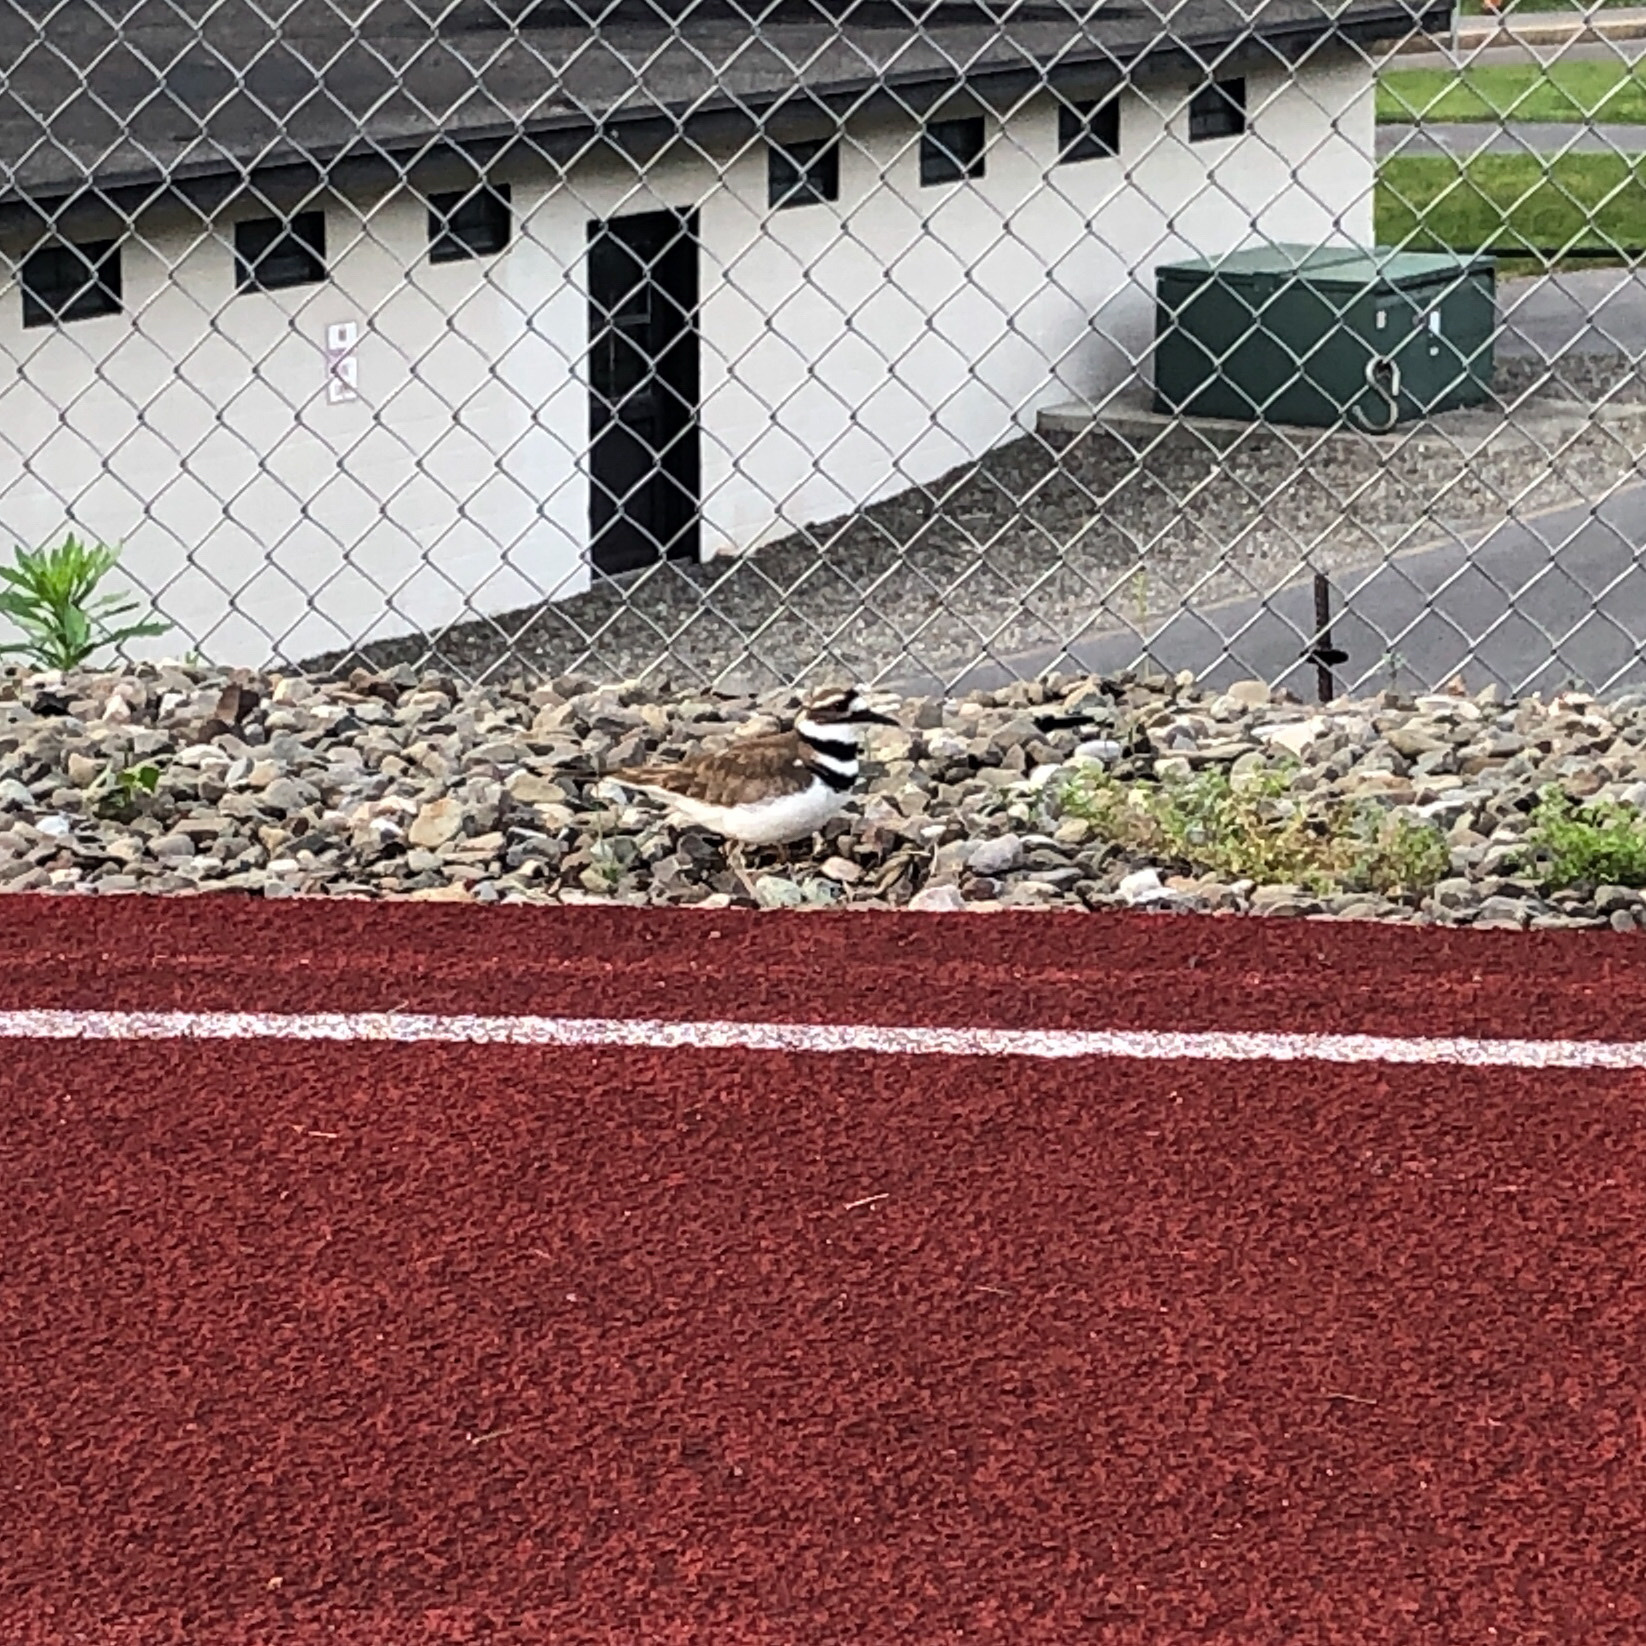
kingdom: Animalia
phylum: Chordata
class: Aves
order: Charadriiformes
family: Charadriidae
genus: Charadrius
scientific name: Charadrius vociferus
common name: Killdeer
